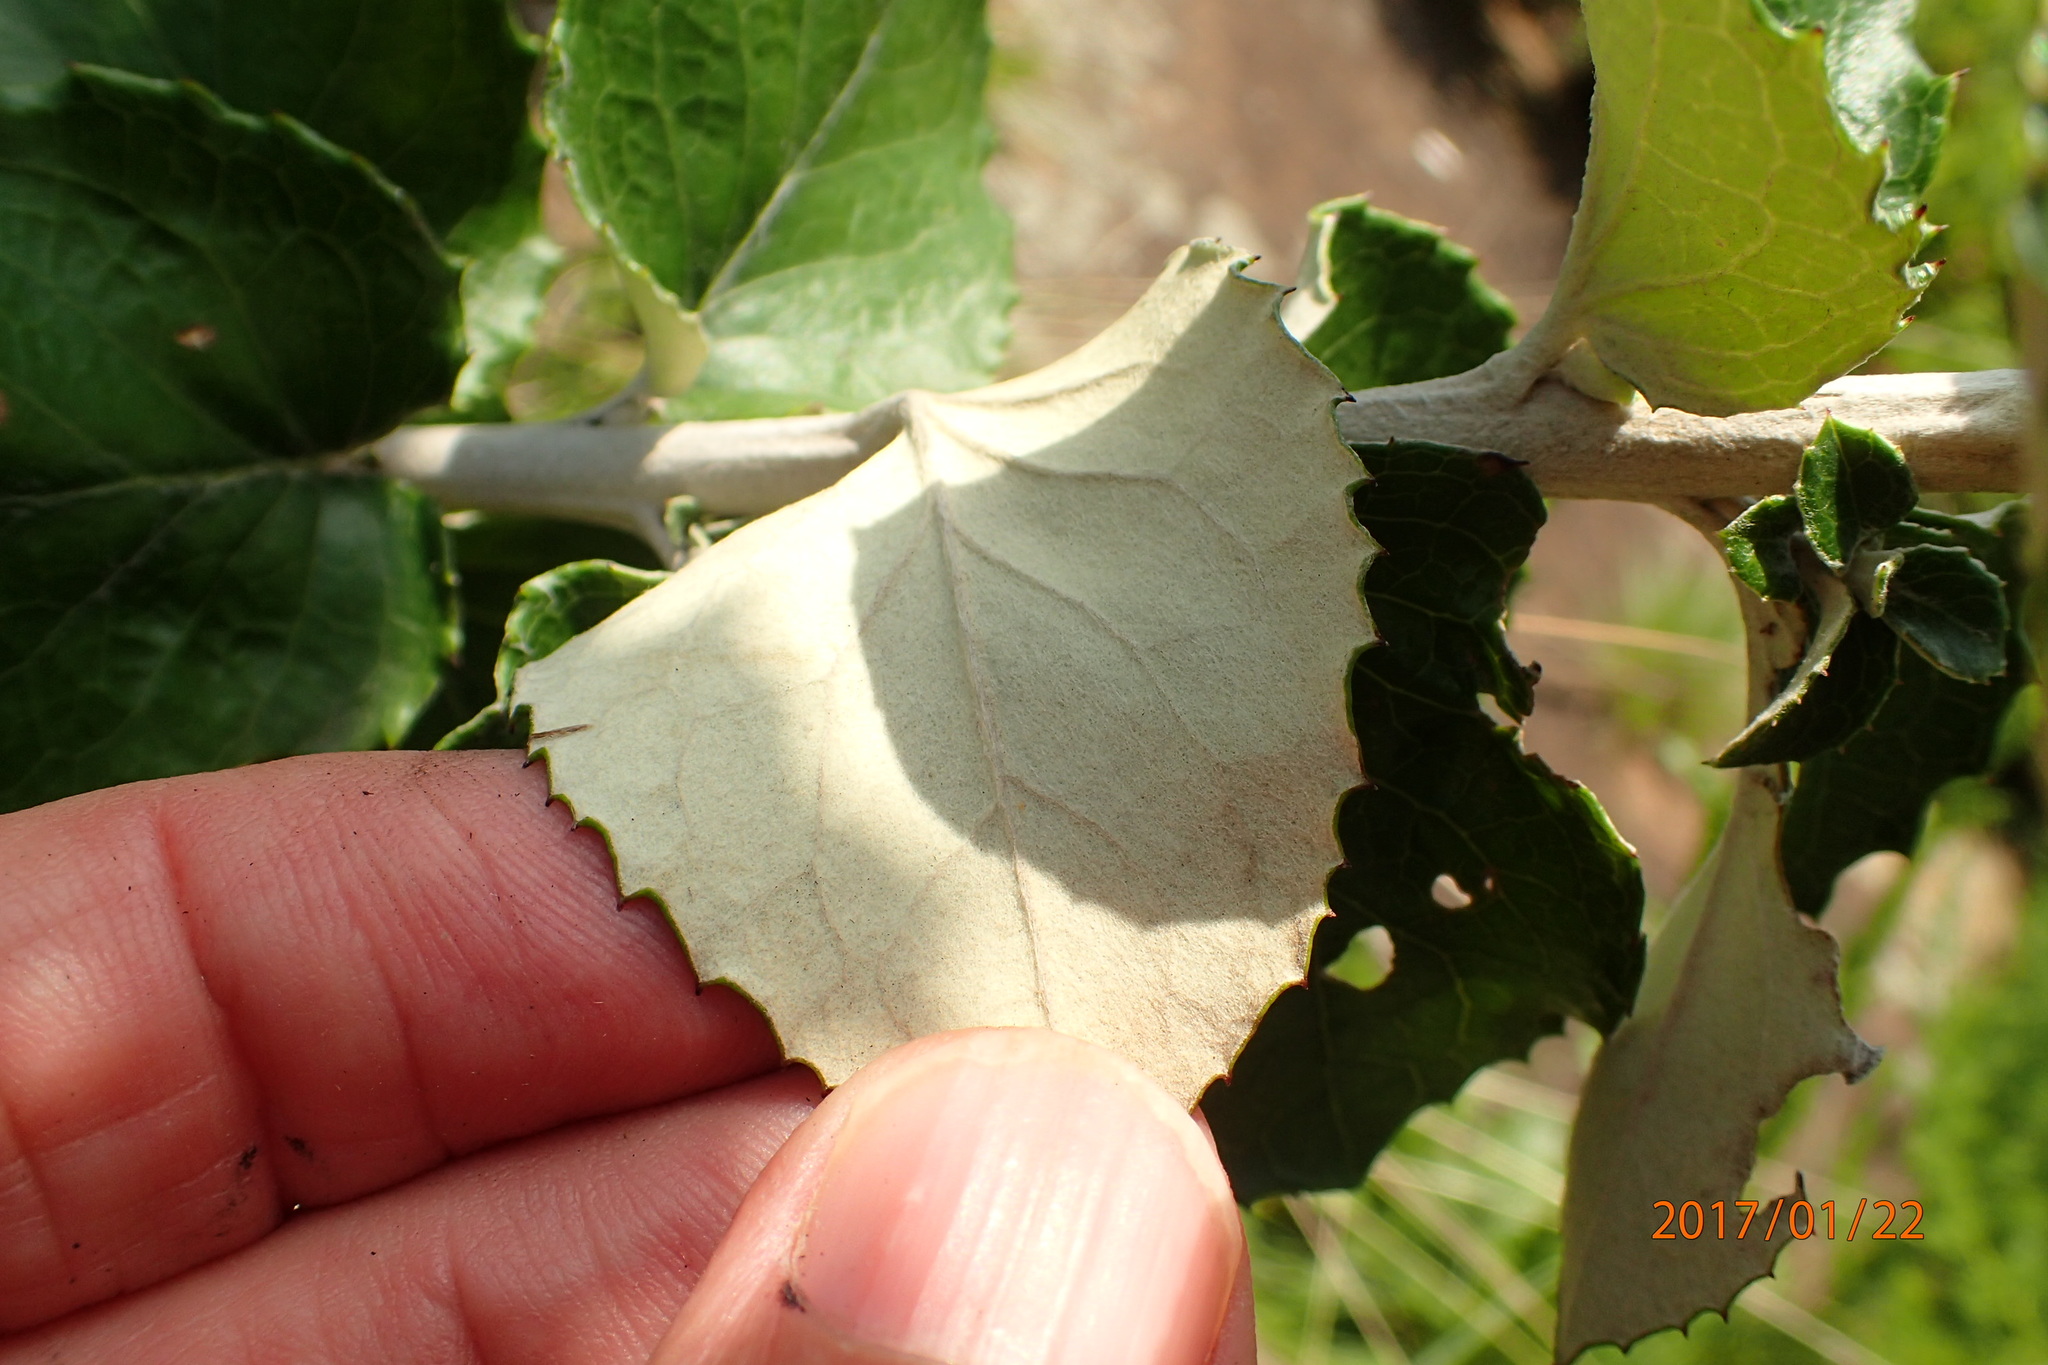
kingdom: Plantae
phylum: Tracheophyta
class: Magnoliopsida
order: Asterales
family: Asteraceae
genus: Printzia
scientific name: Printzia pyrifolia
